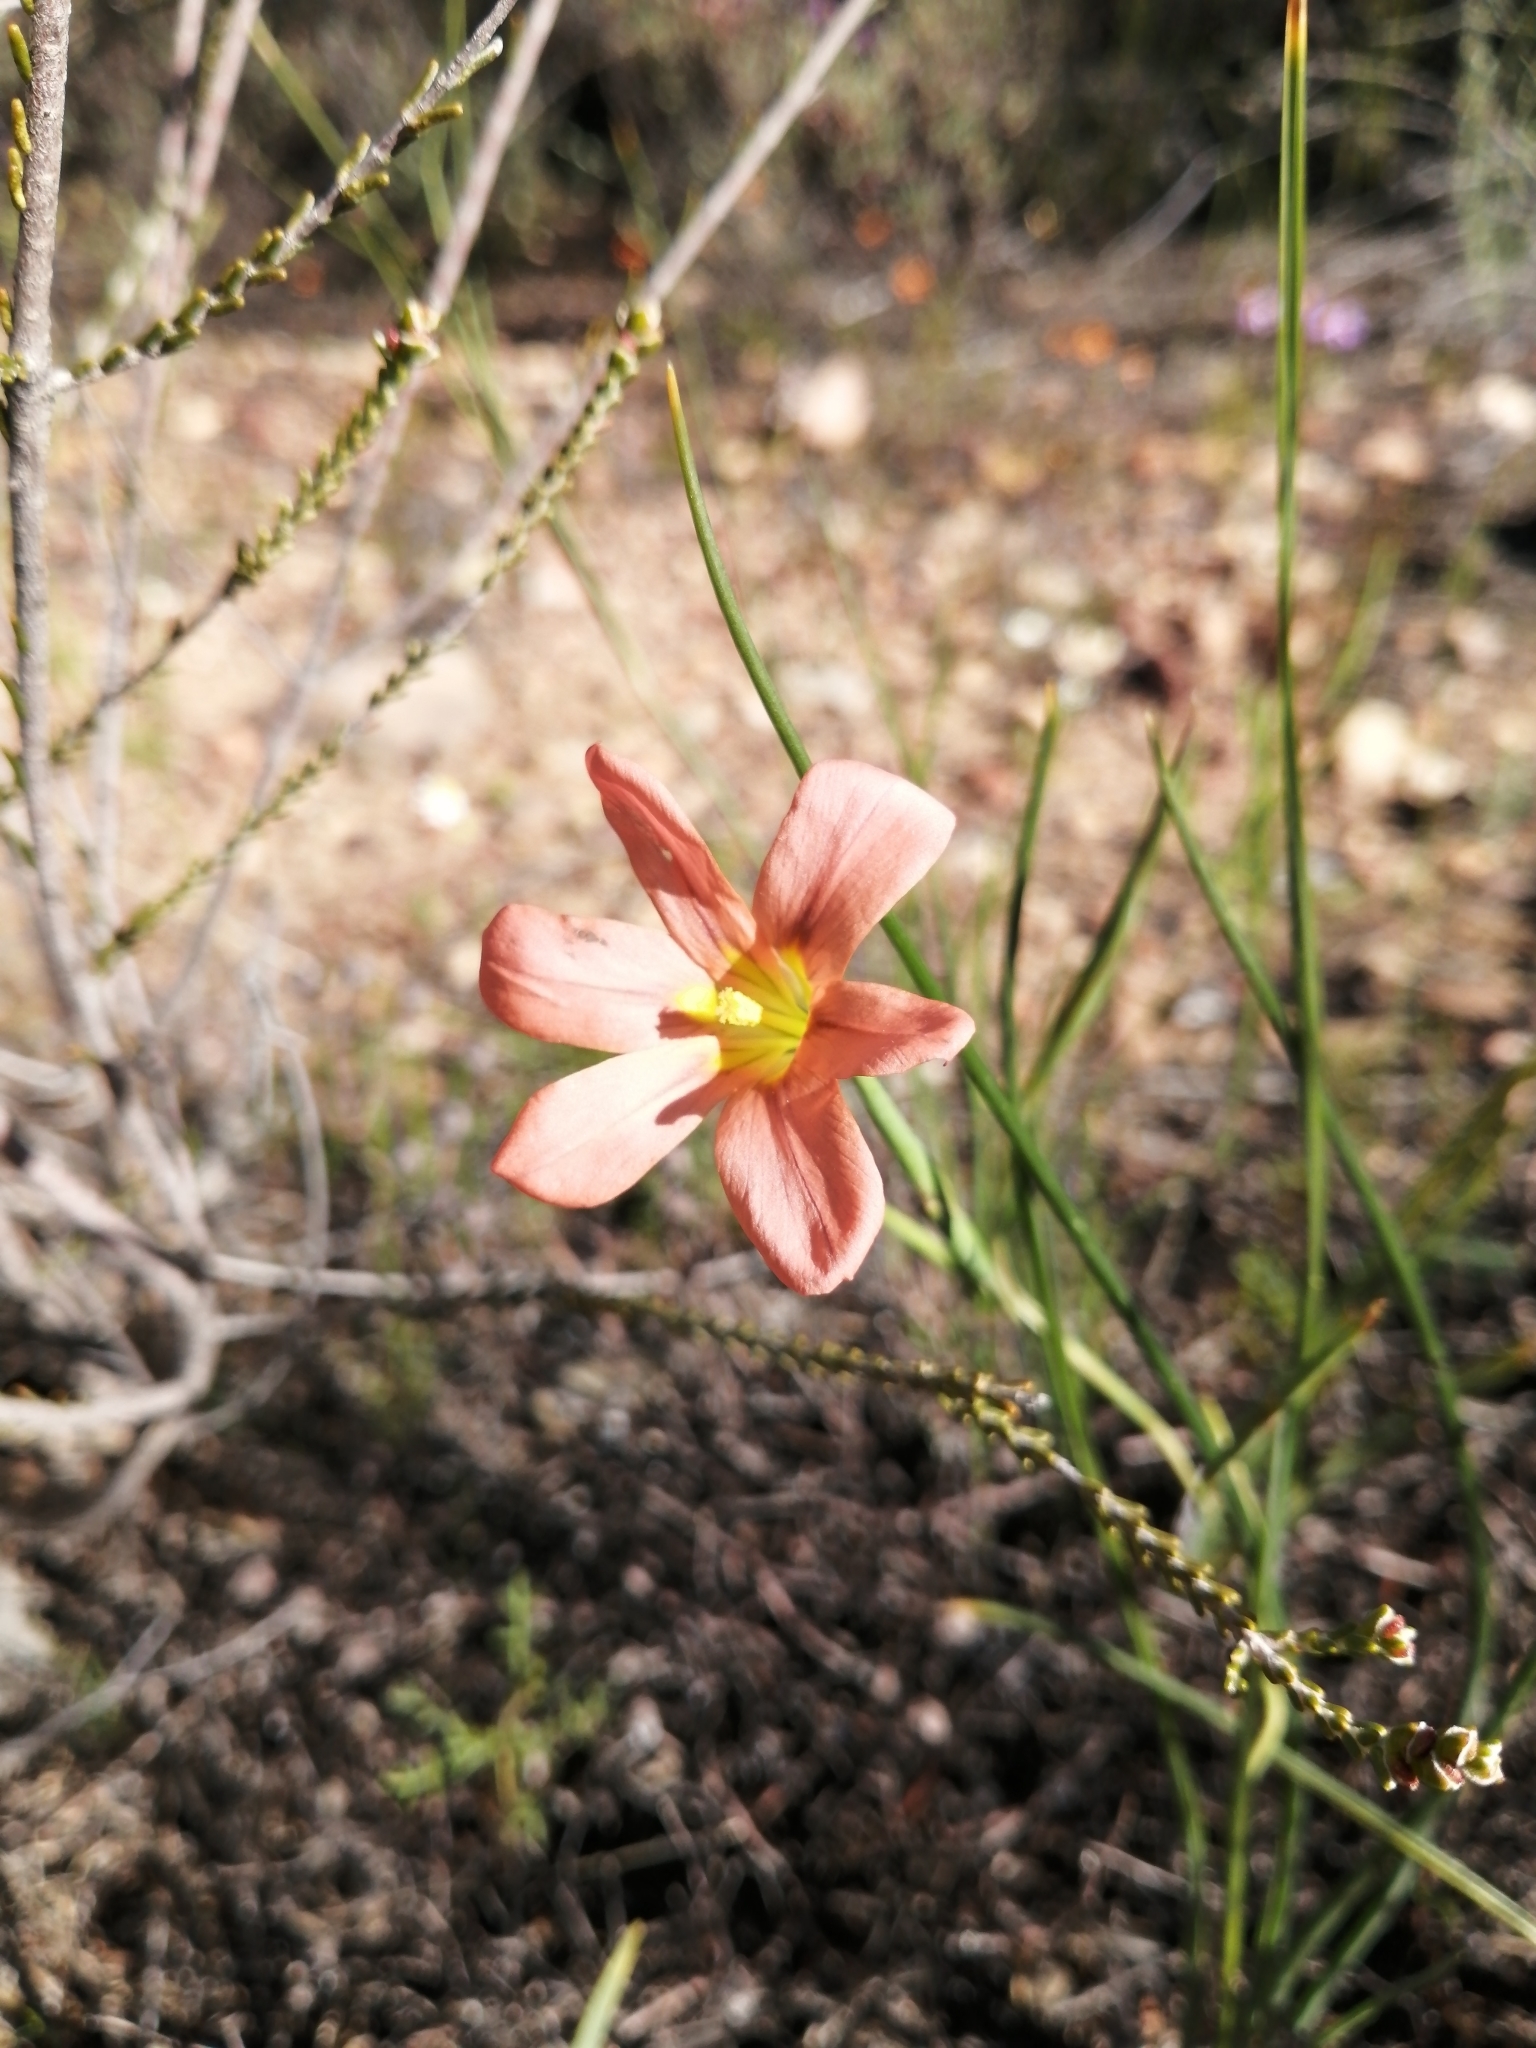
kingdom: Plantae
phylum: Tracheophyta
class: Liliopsida
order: Asparagales
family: Iridaceae
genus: Moraea
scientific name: Moraea flaccida
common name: One-leaf cape-tulip
